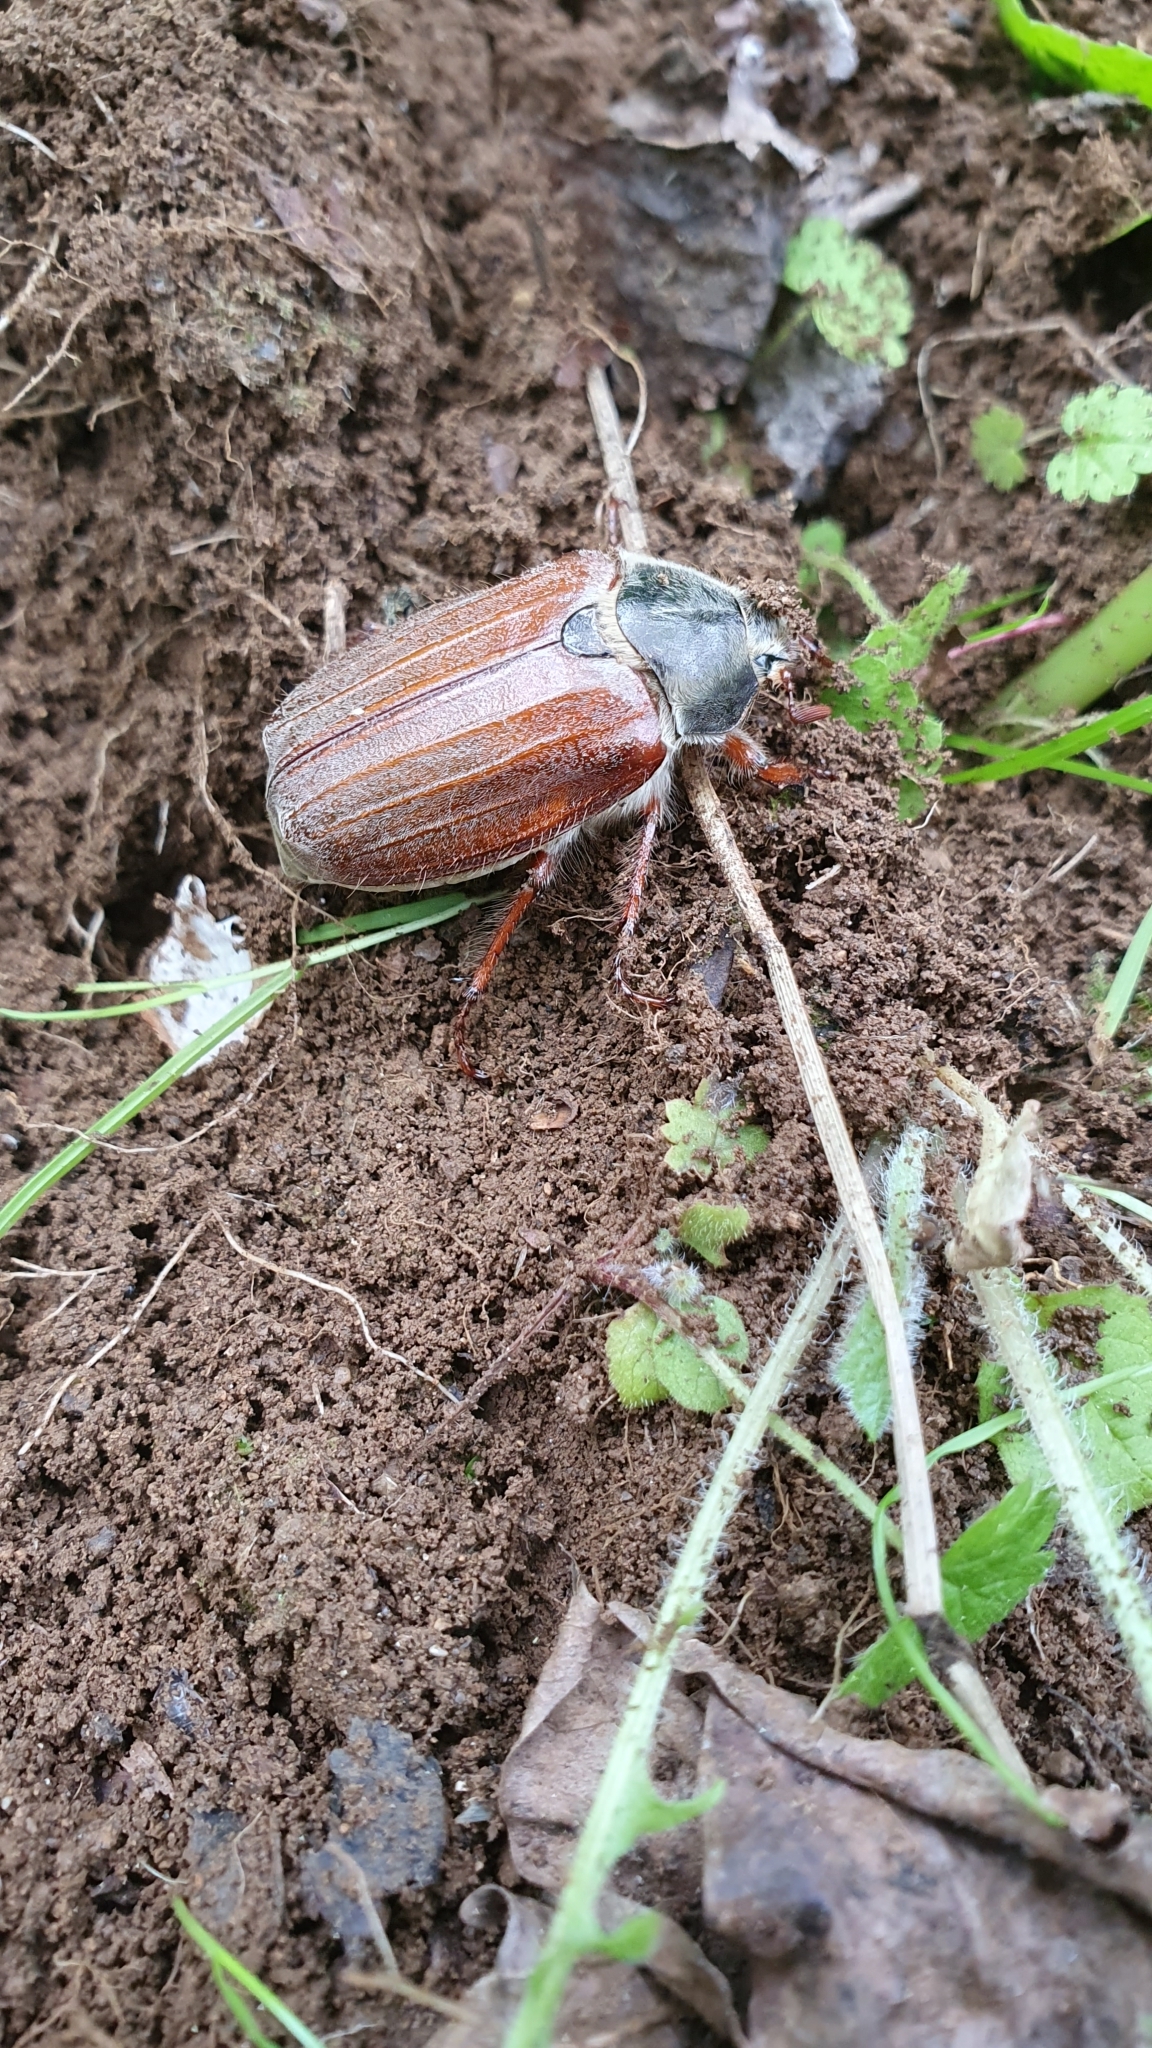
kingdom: Animalia
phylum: Arthropoda
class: Insecta
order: Coleoptera
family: Scarabaeidae
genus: Melolontha
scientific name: Melolontha melolontha
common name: Cockchafer maybeetle
